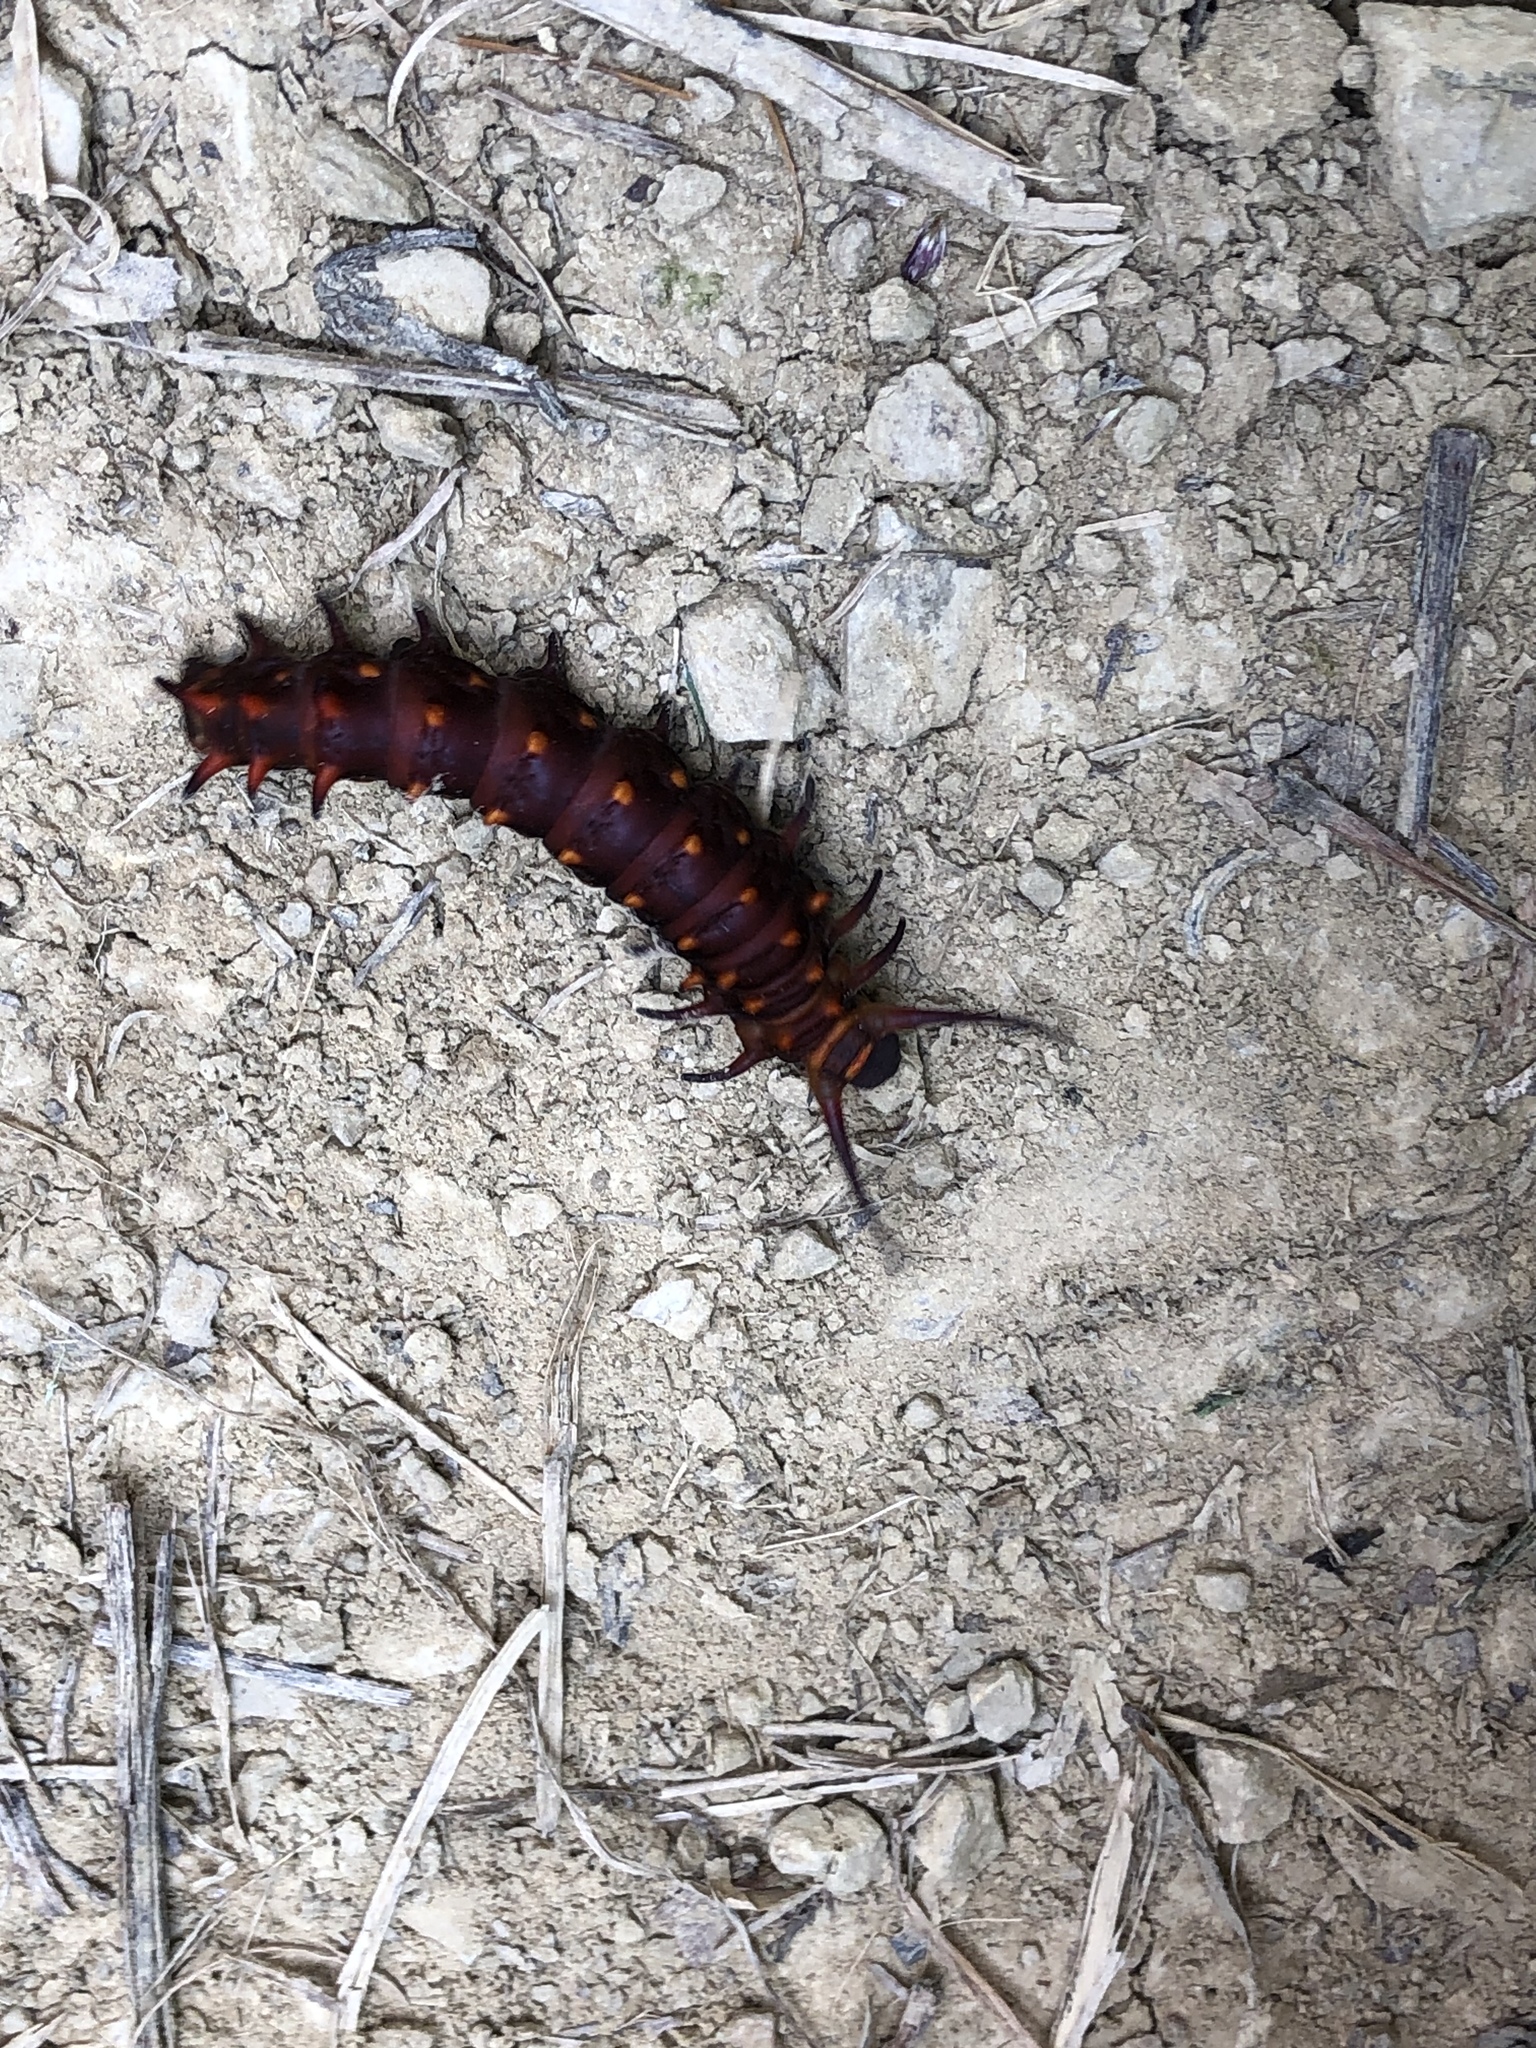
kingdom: Animalia
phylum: Arthropoda
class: Insecta
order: Lepidoptera
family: Papilionidae
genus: Battus
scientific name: Battus philenor
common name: Pipevine swallowtail
